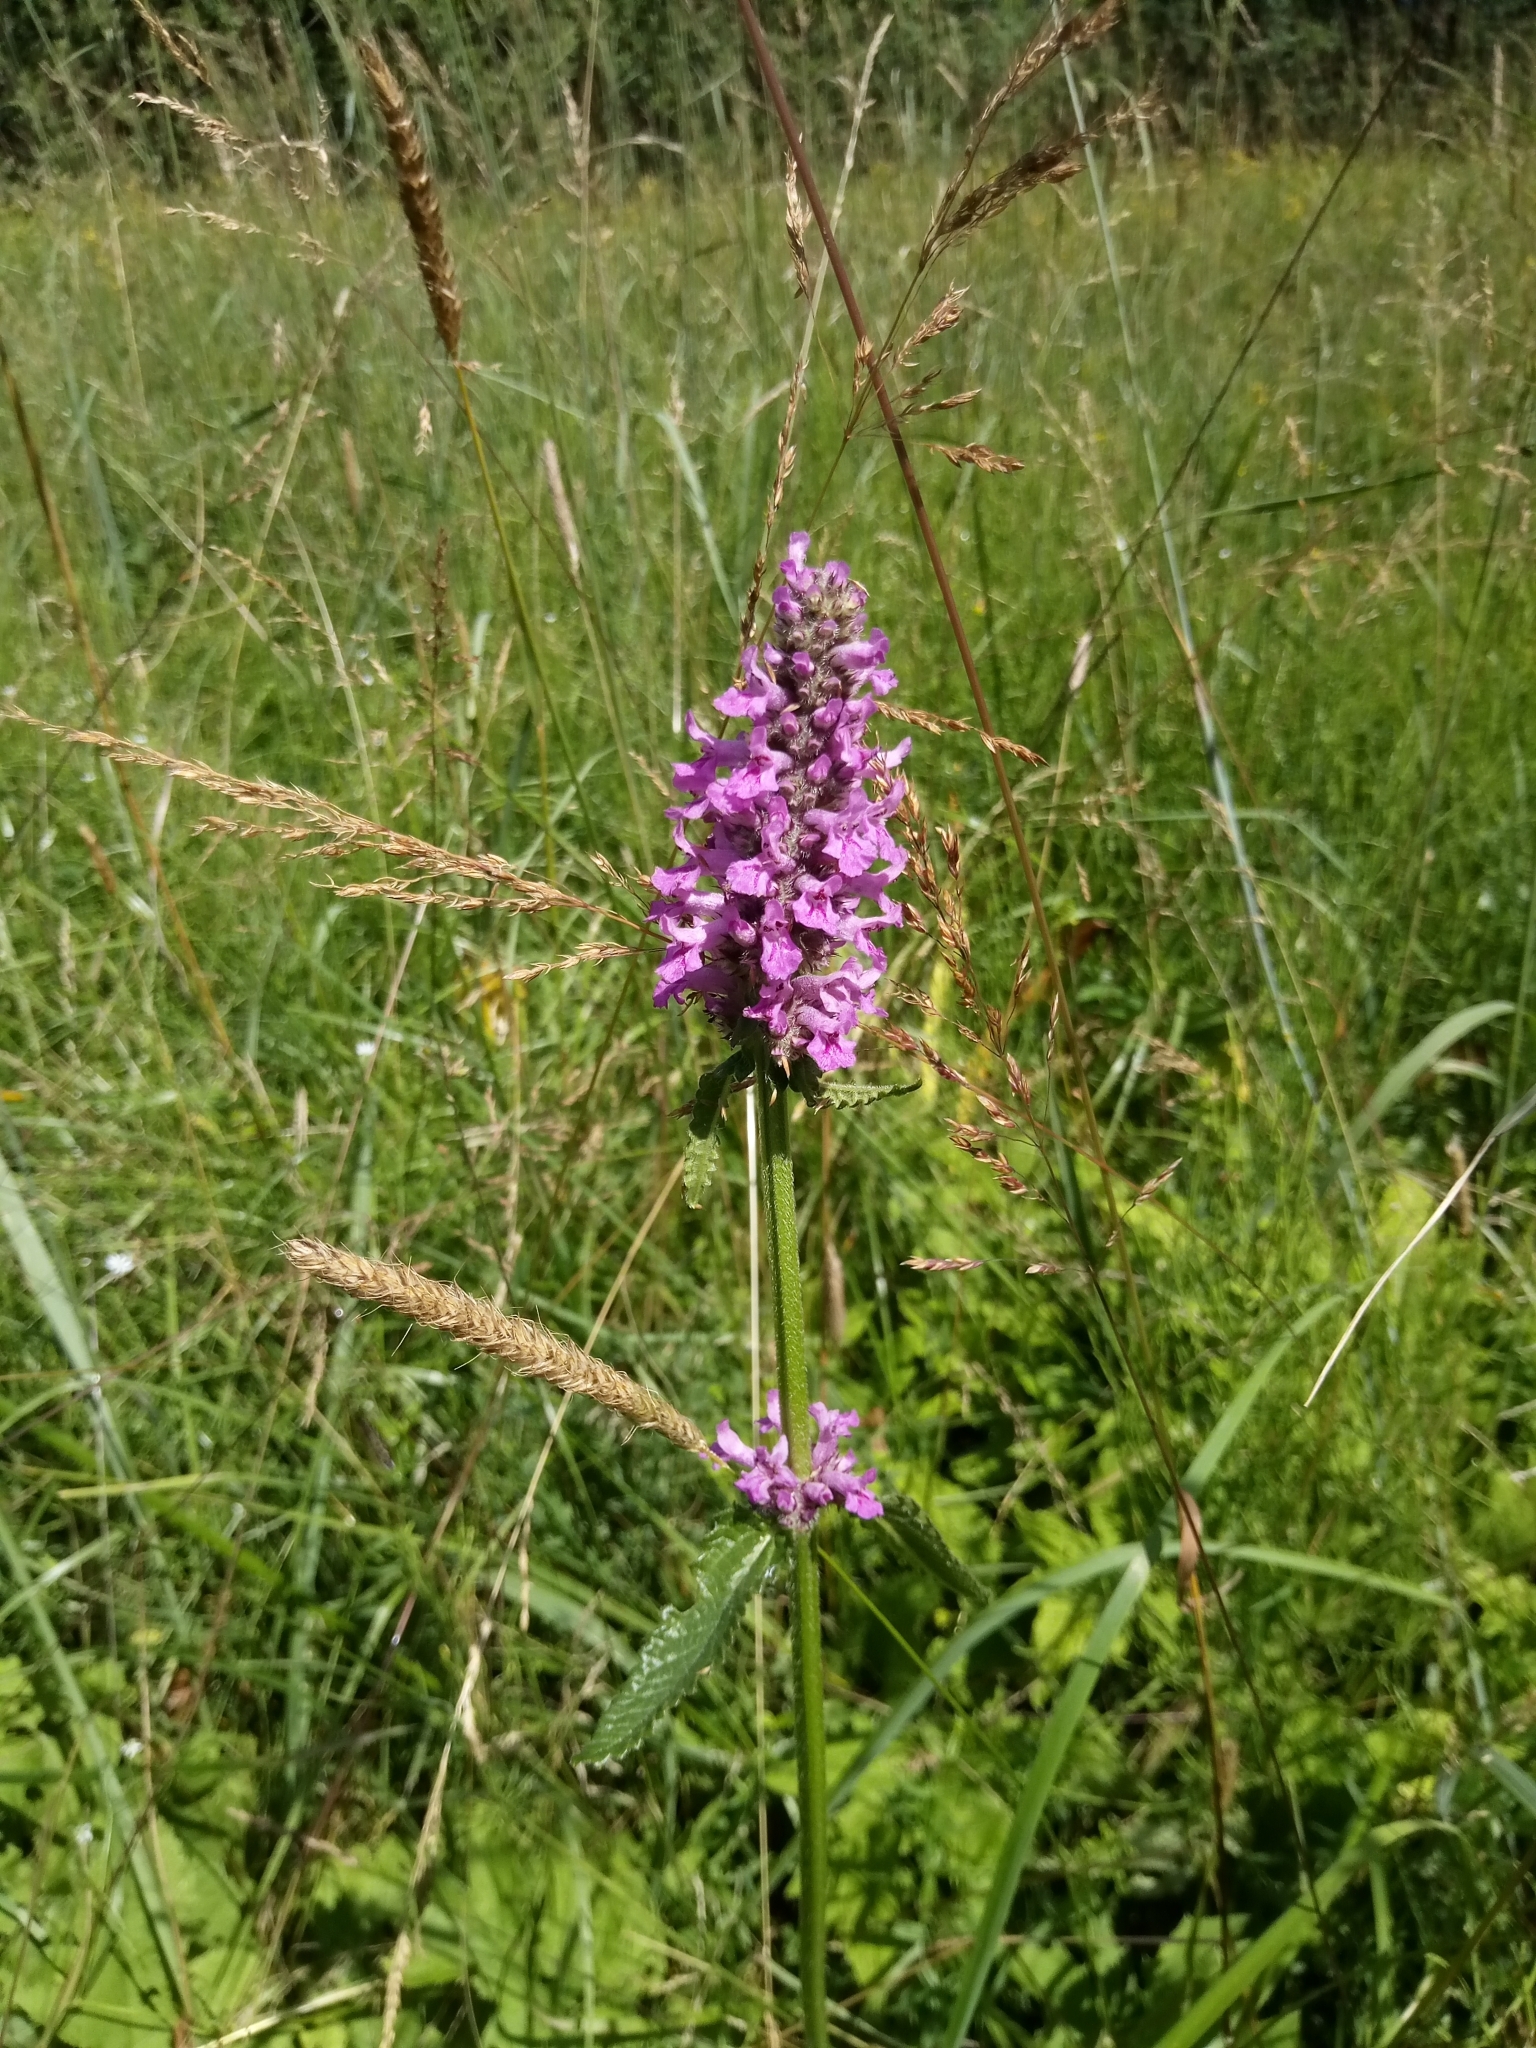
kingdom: Plantae
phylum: Tracheophyta
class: Magnoliopsida
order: Lamiales
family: Lamiaceae
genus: Betonica
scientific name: Betonica officinalis
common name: Bishop's-wort
